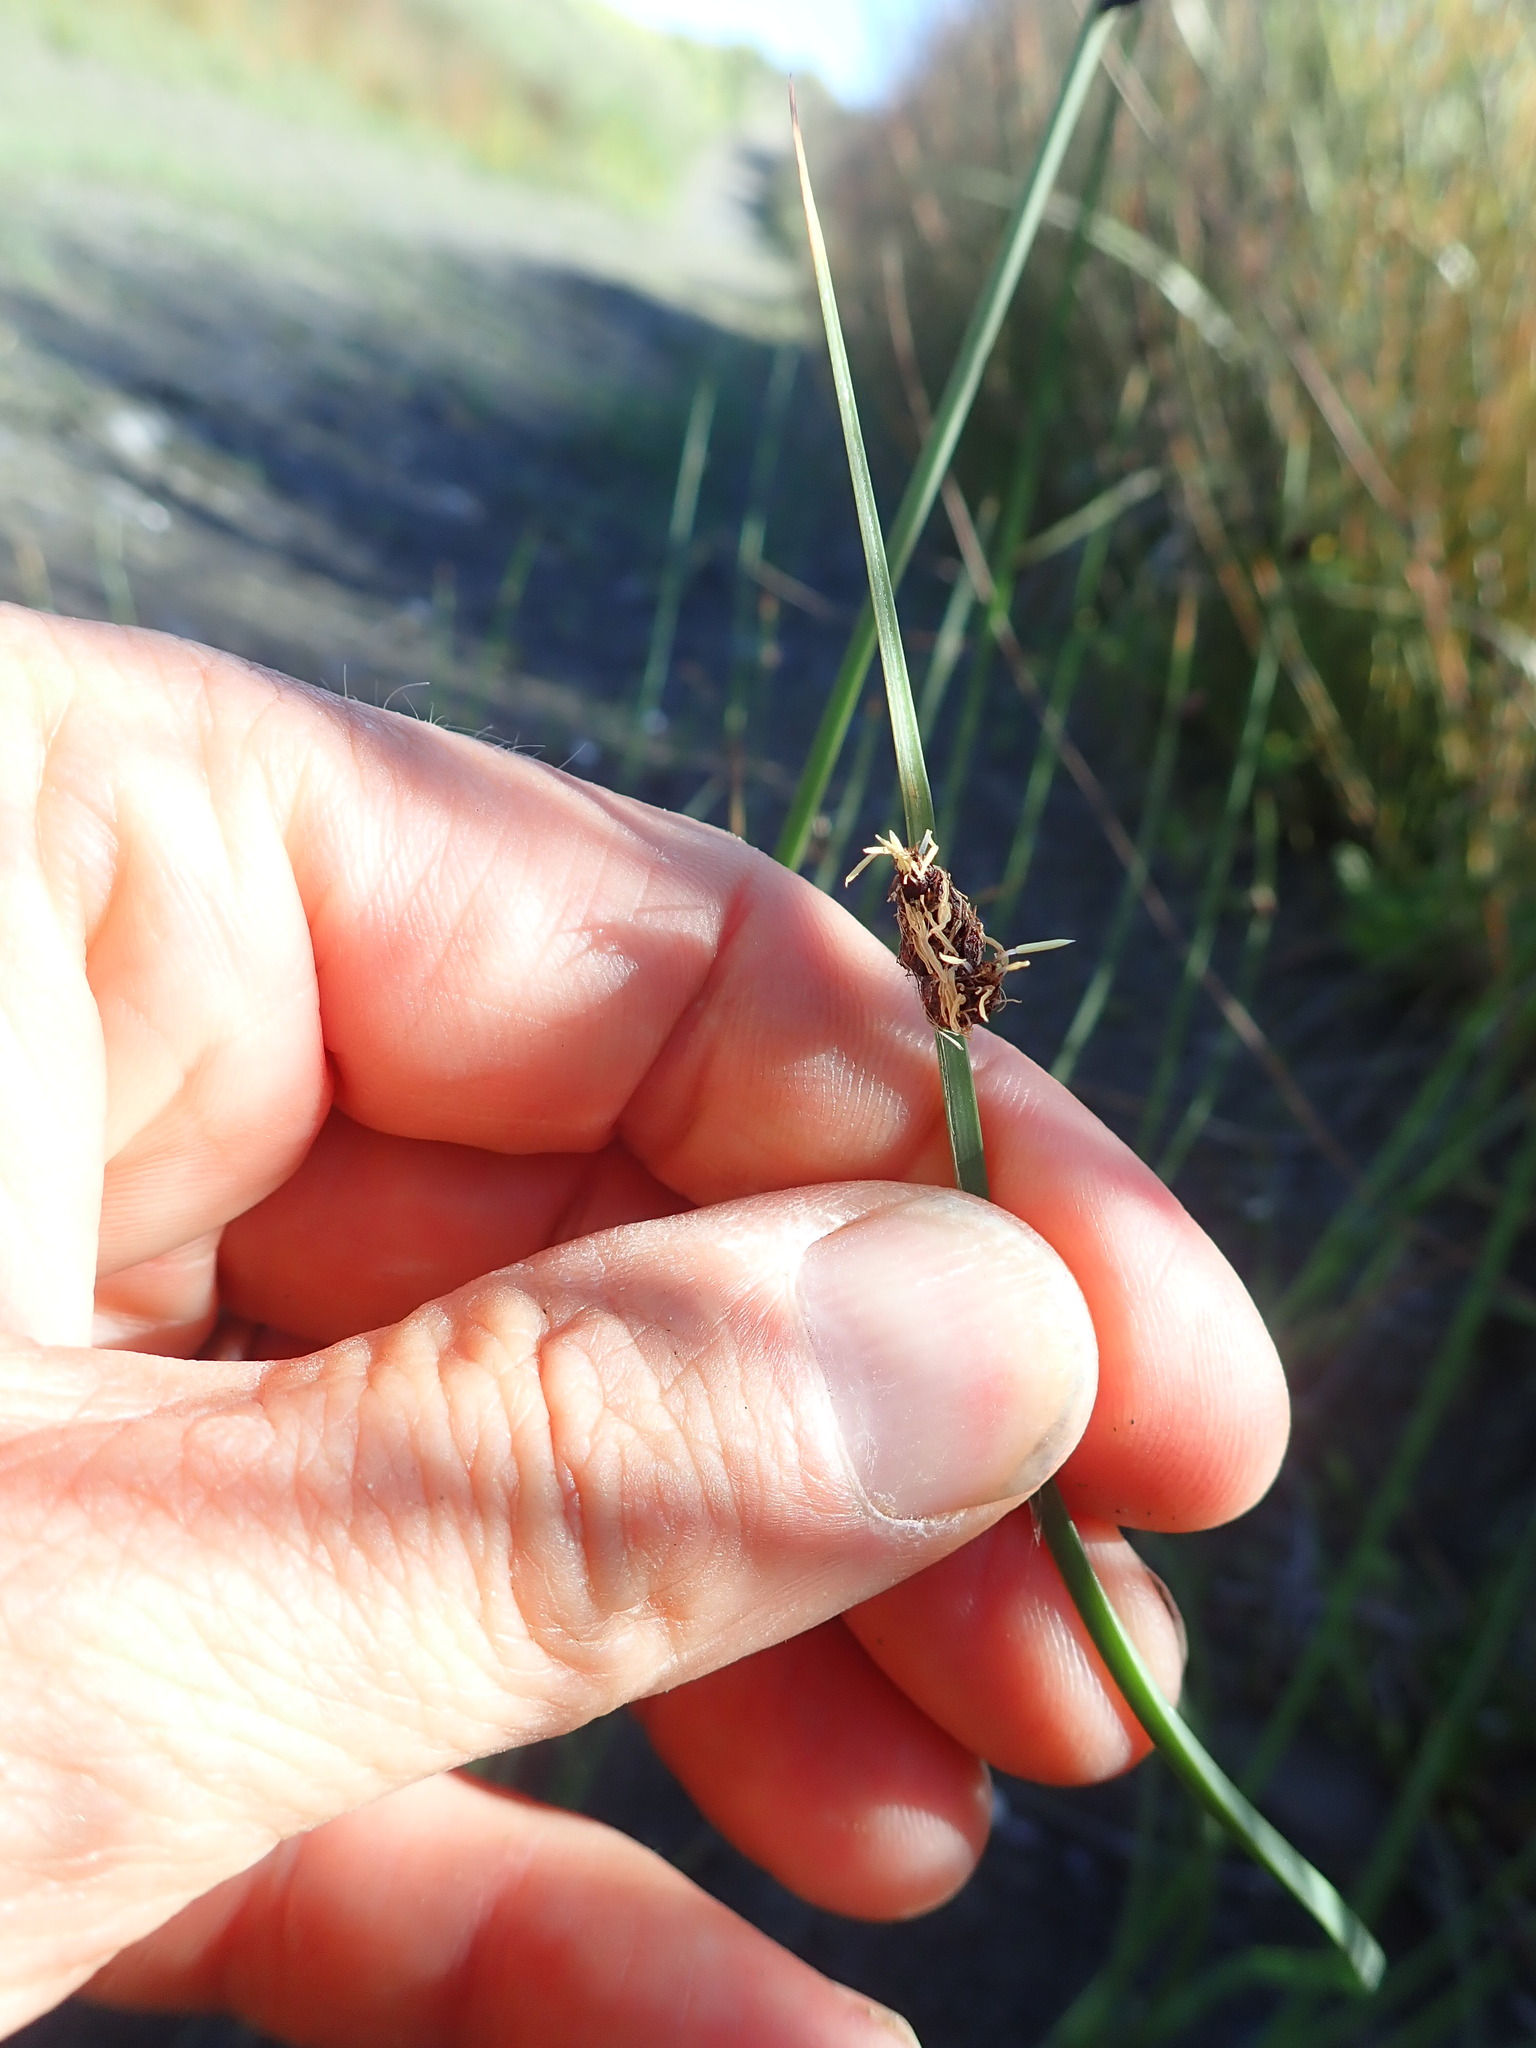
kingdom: Plantae
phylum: Tracheophyta
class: Liliopsida
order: Poales
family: Cyperaceae
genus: Schoenoplectus
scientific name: Schoenoplectus pungens
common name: Sharp club-rush
